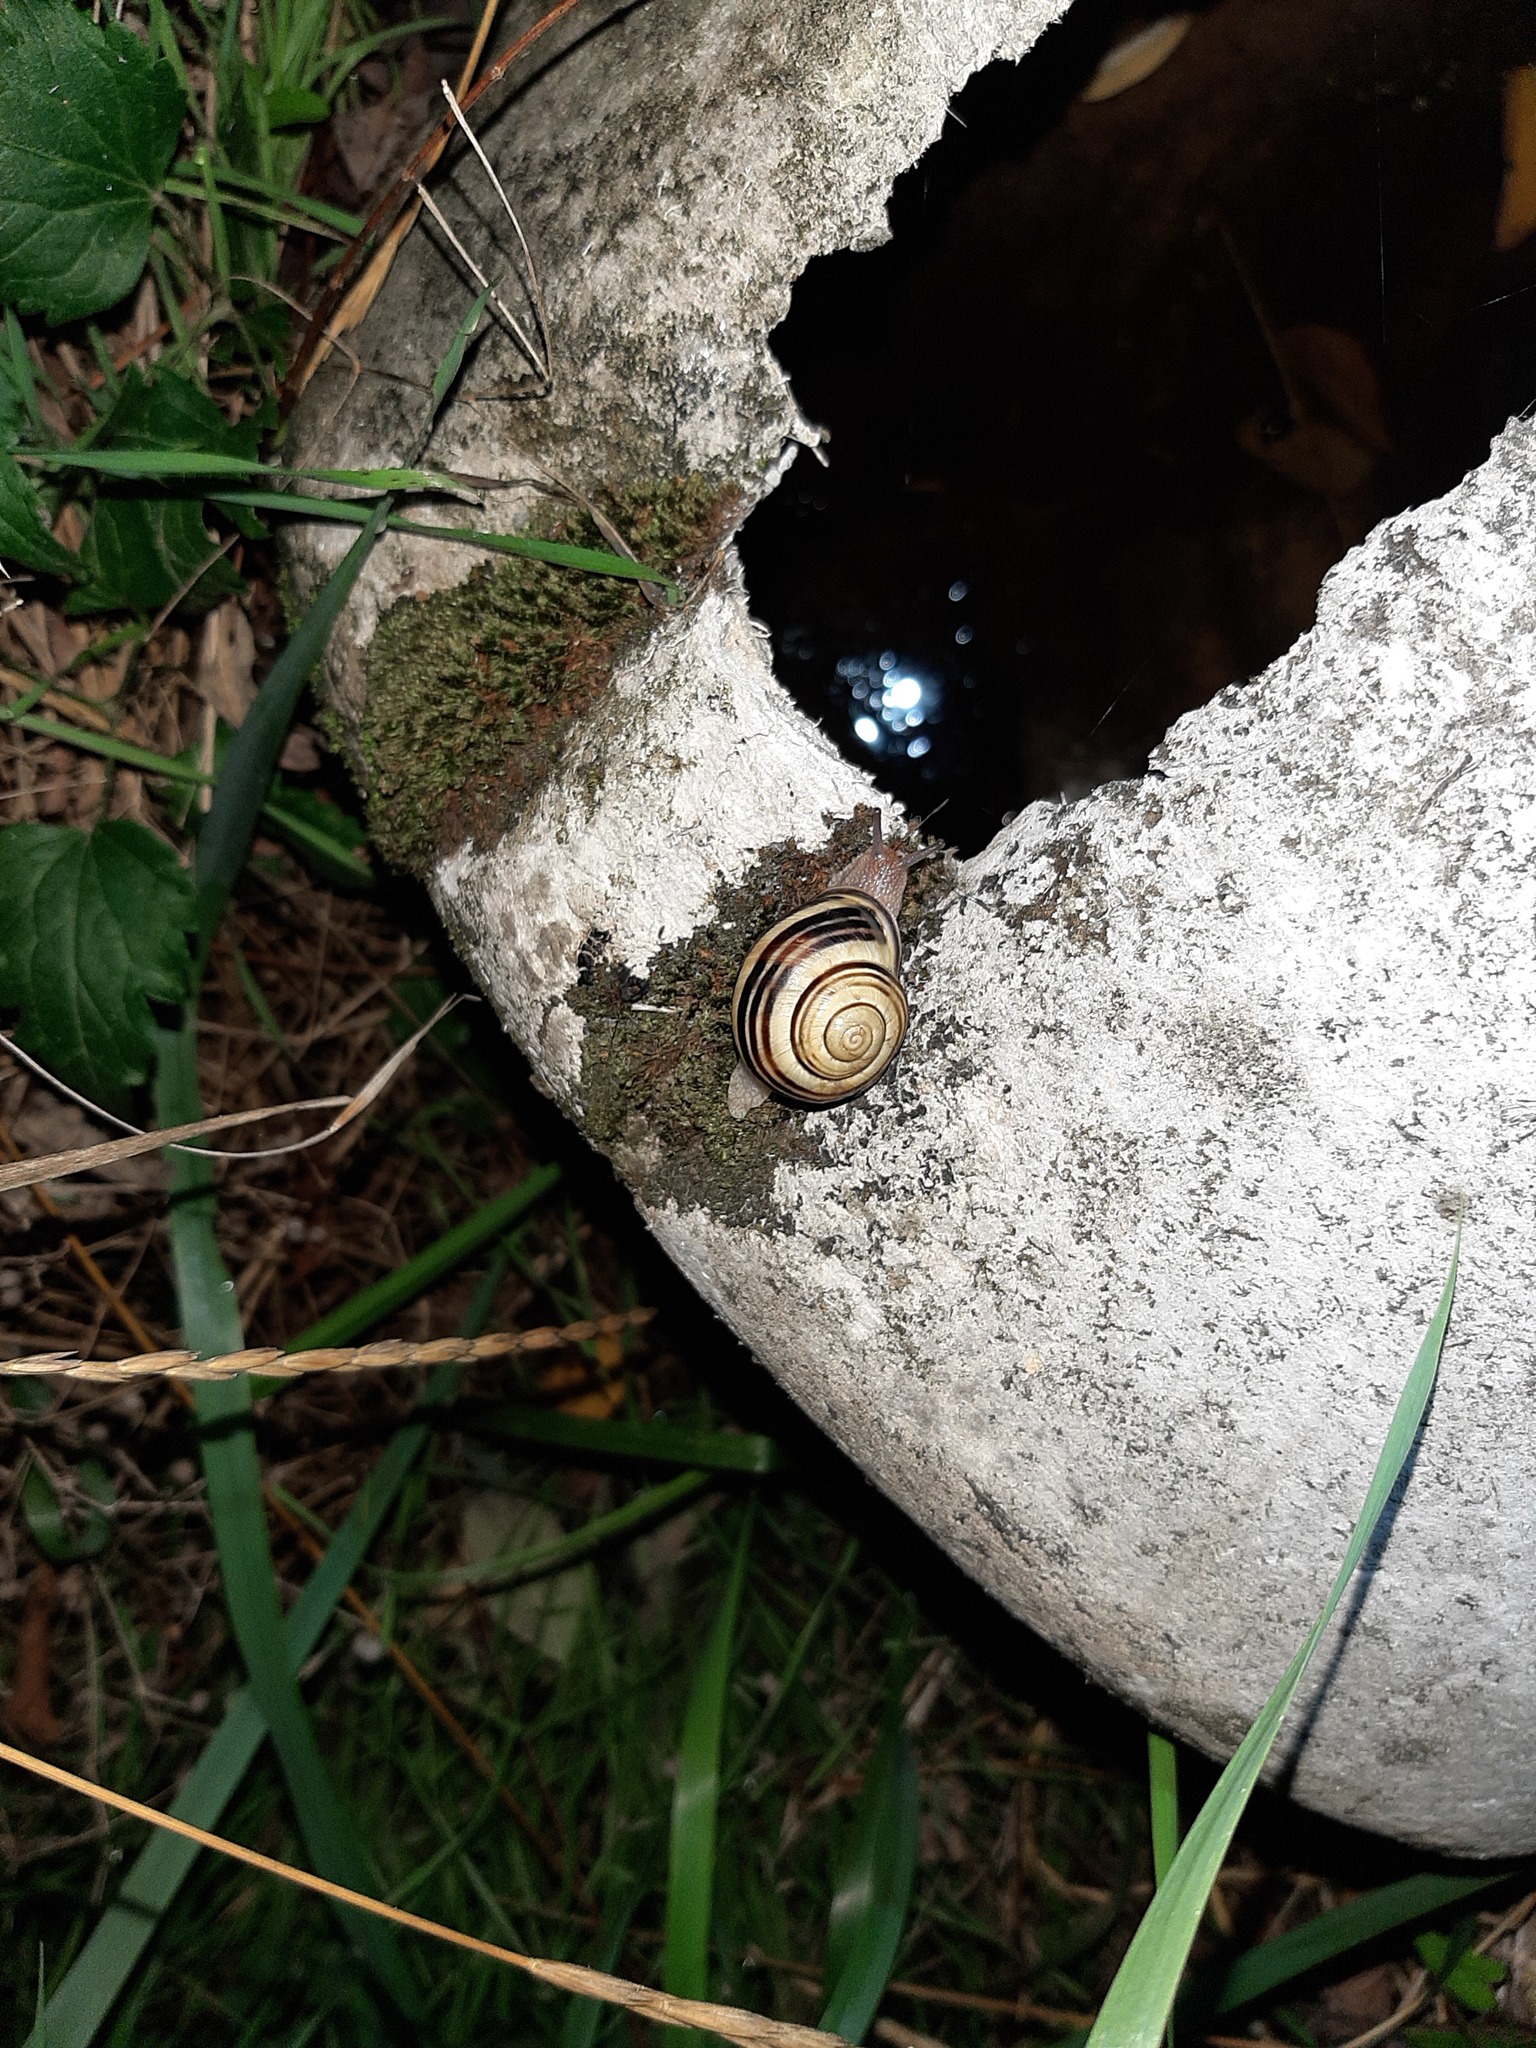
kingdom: Animalia
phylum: Mollusca
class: Gastropoda
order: Stylommatophora
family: Helicidae
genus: Cepaea
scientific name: Cepaea nemoralis
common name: Grovesnail
